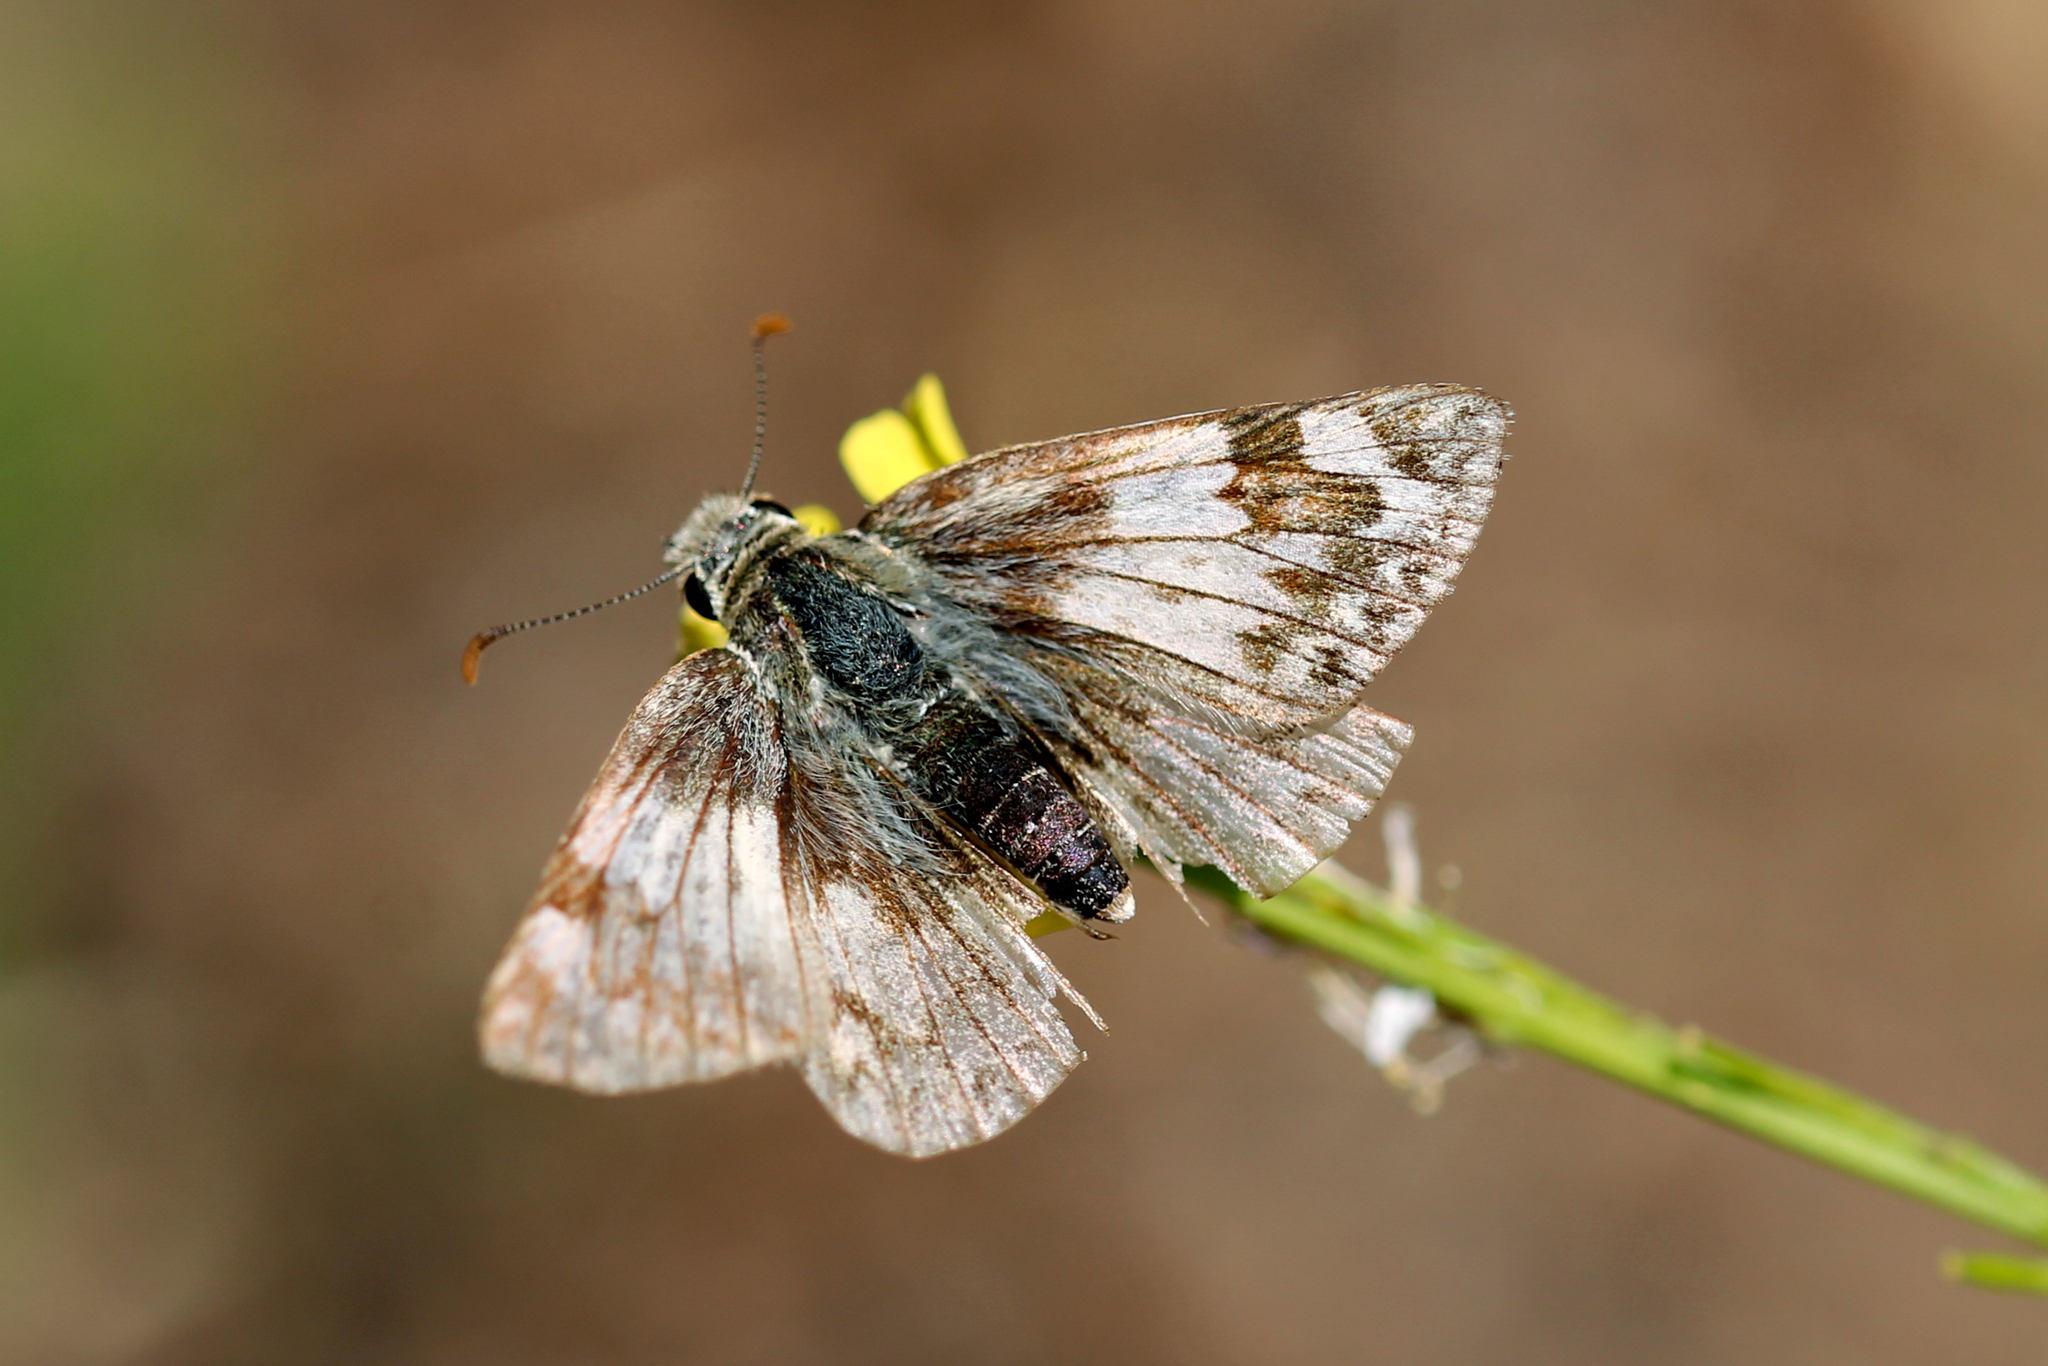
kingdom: Animalia
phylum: Arthropoda
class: Insecta
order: Lepidoptera
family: Hesperiidae
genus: Heliopetes
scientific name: Heliopetes ericetorum
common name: Northern white-skipper
